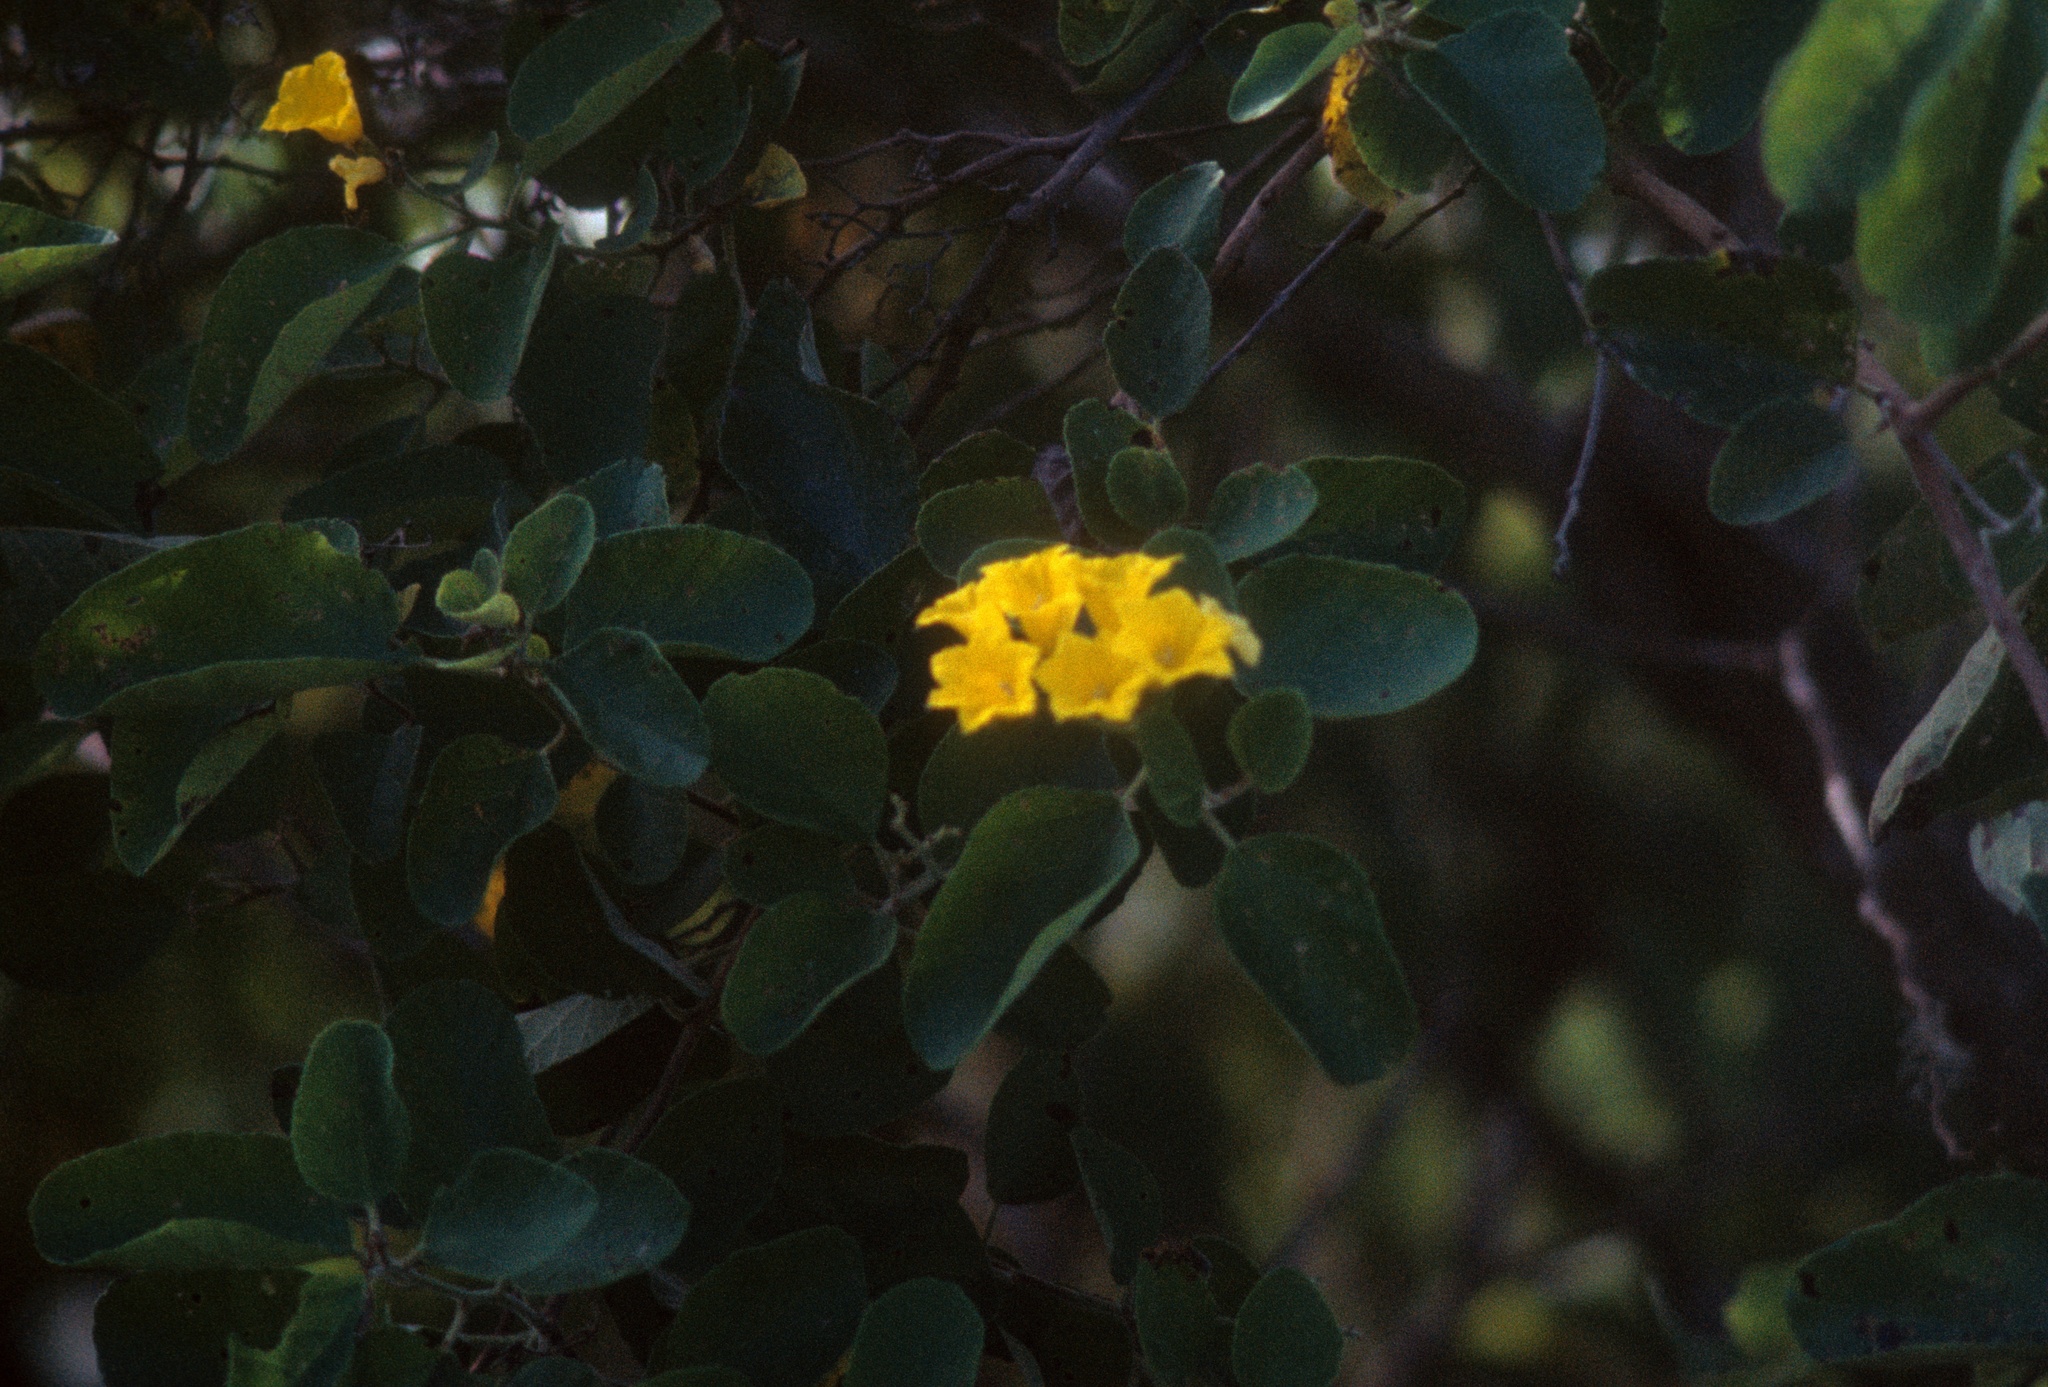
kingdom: Plantae
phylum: Tracheophyta
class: Magnoliopsida
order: Boraginales
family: Cordiaceae
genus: Cordia
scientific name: Cordia lutea
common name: Yellow geiger
